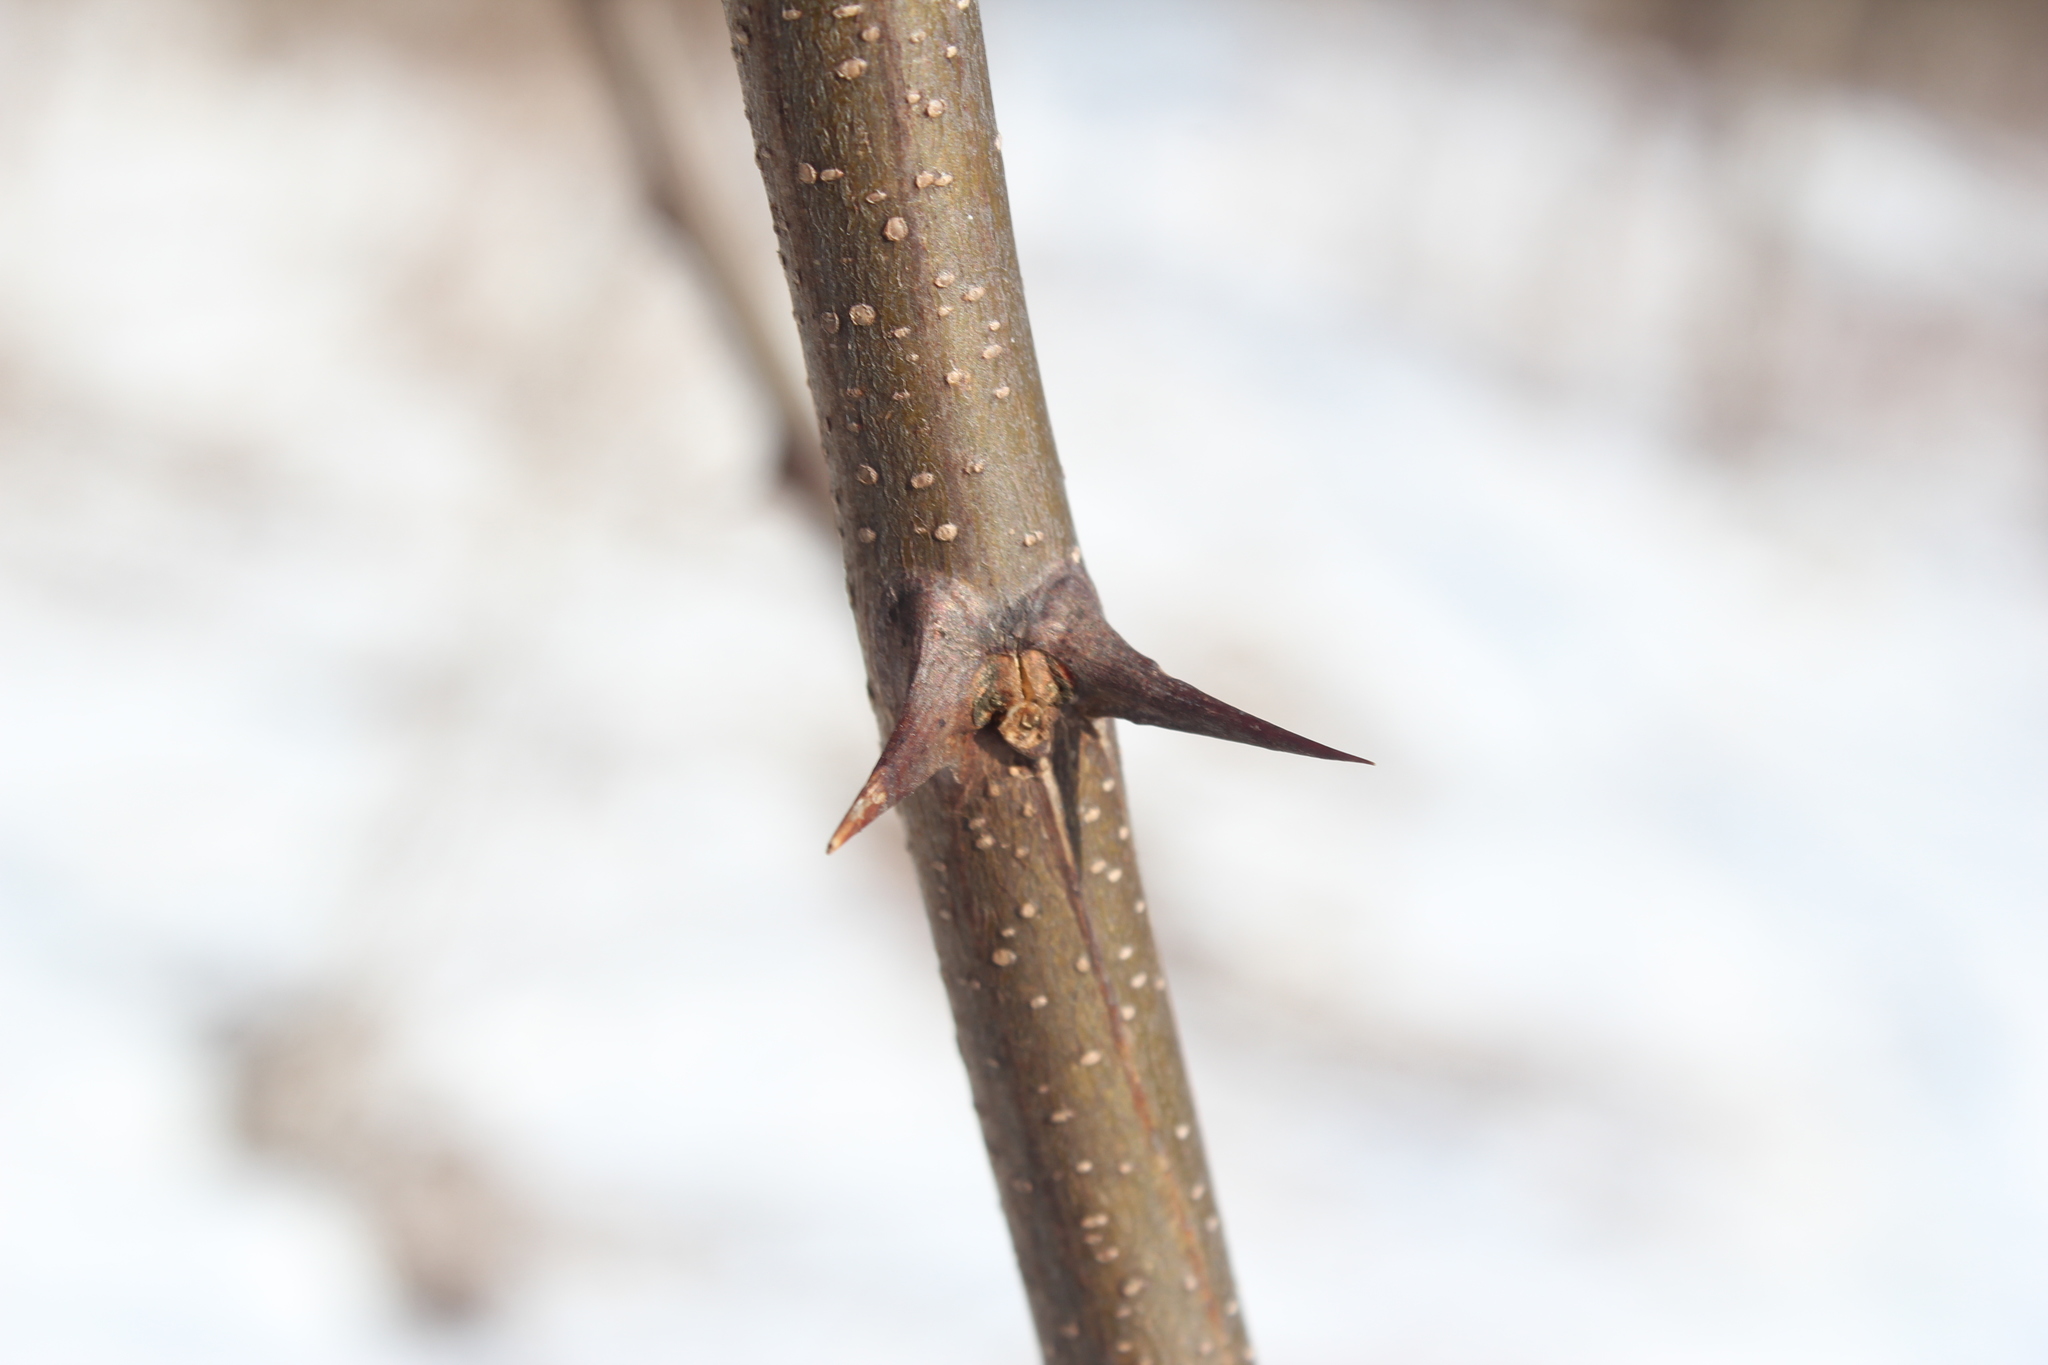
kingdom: Plantae
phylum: Tracheophyta
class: Magnoliopsida
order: Fabales
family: Fabaceae
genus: Robinia
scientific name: Robinia pseudoacacia
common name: Black locust
